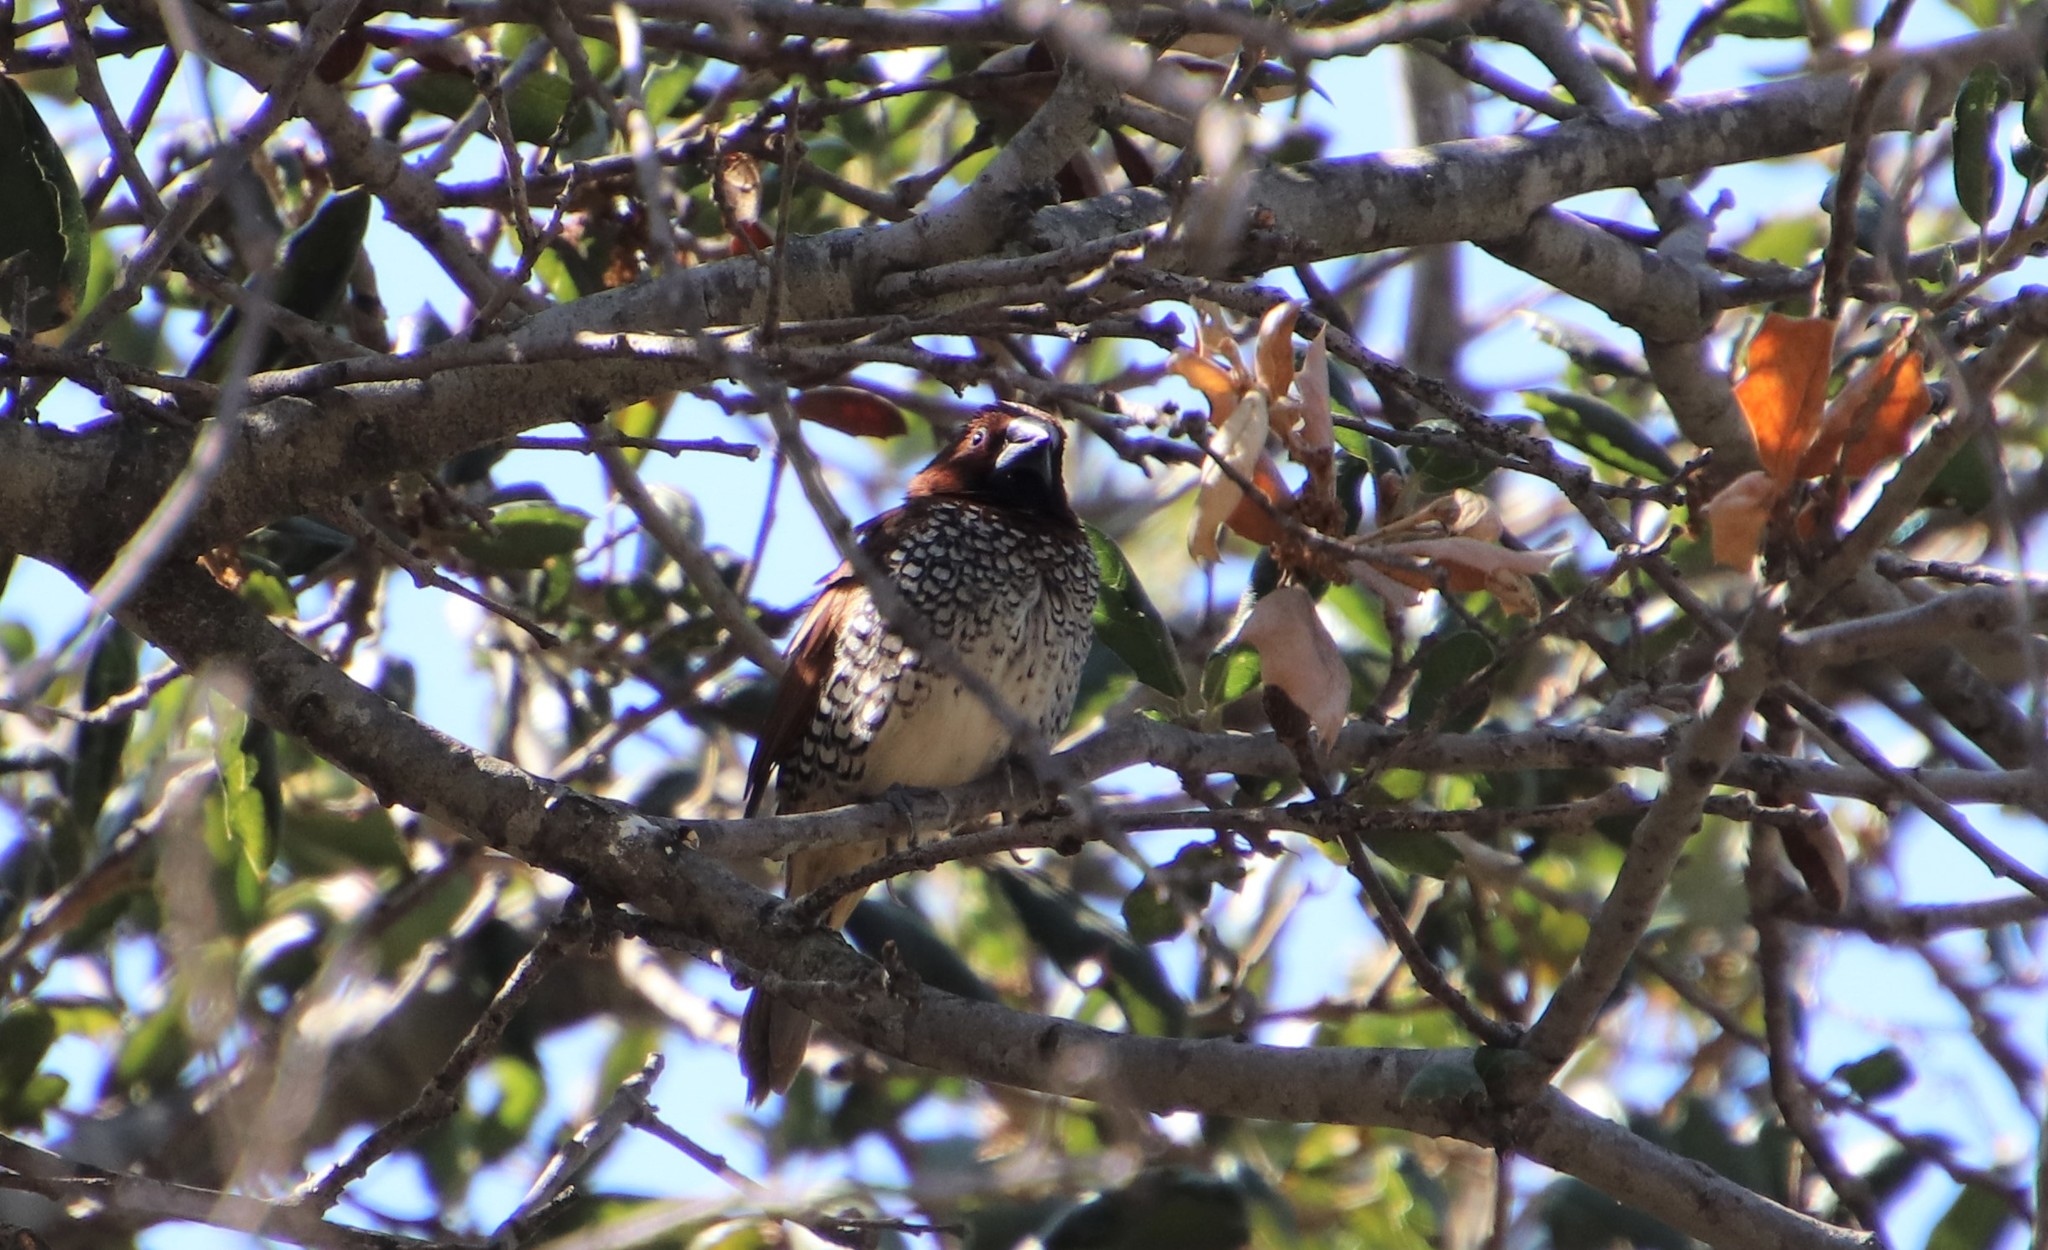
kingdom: Animalia
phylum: Chordata
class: Aves
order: Passeriformes
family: Estrildidae
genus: Lonchura
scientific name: Lonchura punctulata
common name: Scaly-breasted munia
